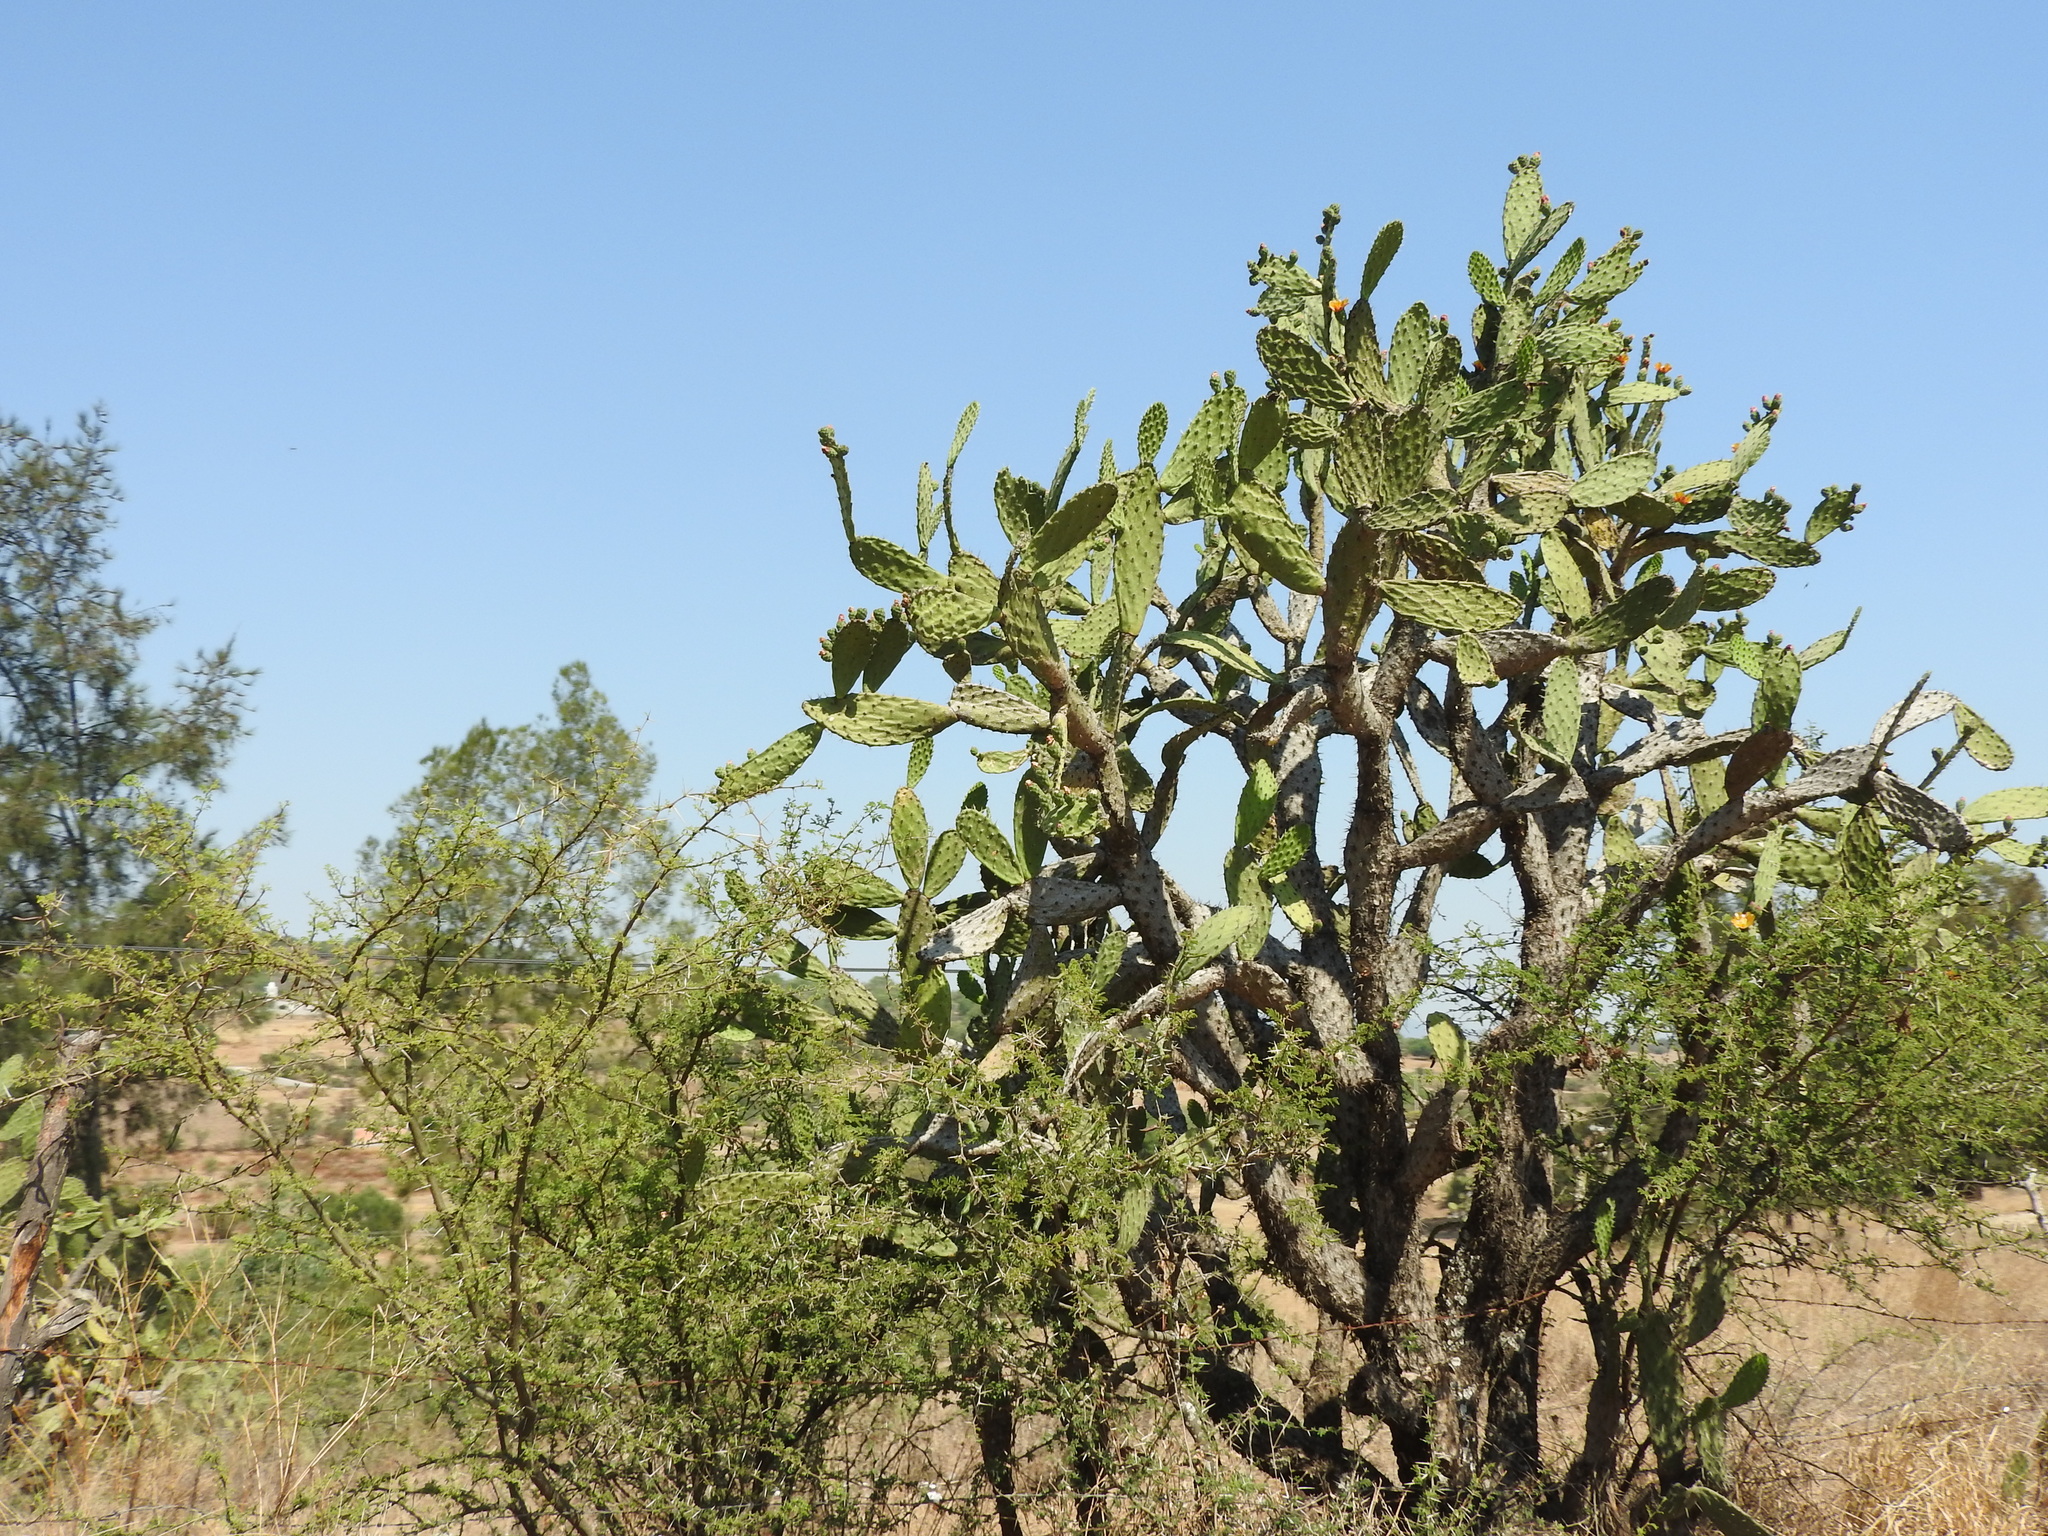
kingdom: Plantae
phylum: Tracheophyta
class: Magnoliopsida
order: Caryophyllales
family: Cactaceae
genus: Opuntia
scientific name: Opuntia jaliscana
